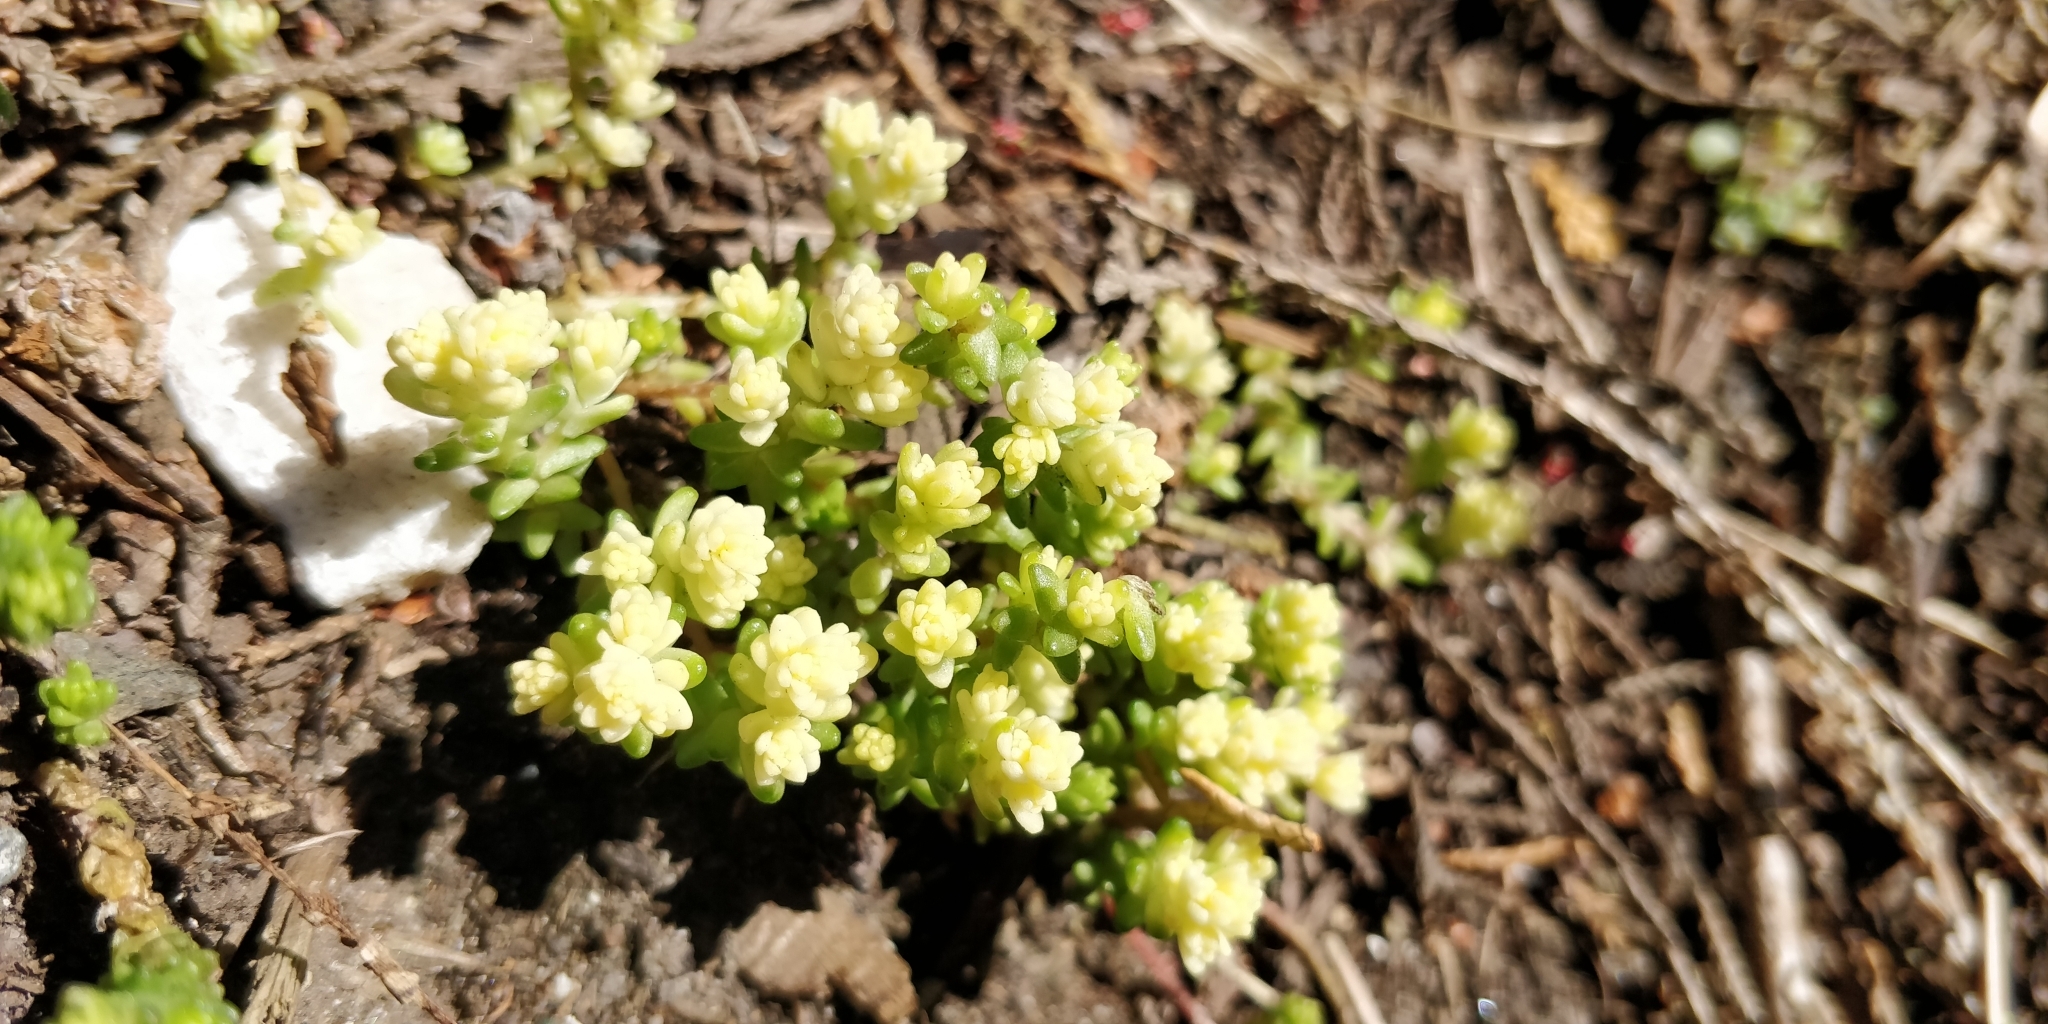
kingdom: Plantae
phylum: Tracheophyta
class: Magnoliopsida
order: Saxifragales
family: Crassulaceae
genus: Sedum
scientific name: Sedum acre
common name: Biting stonecrop
